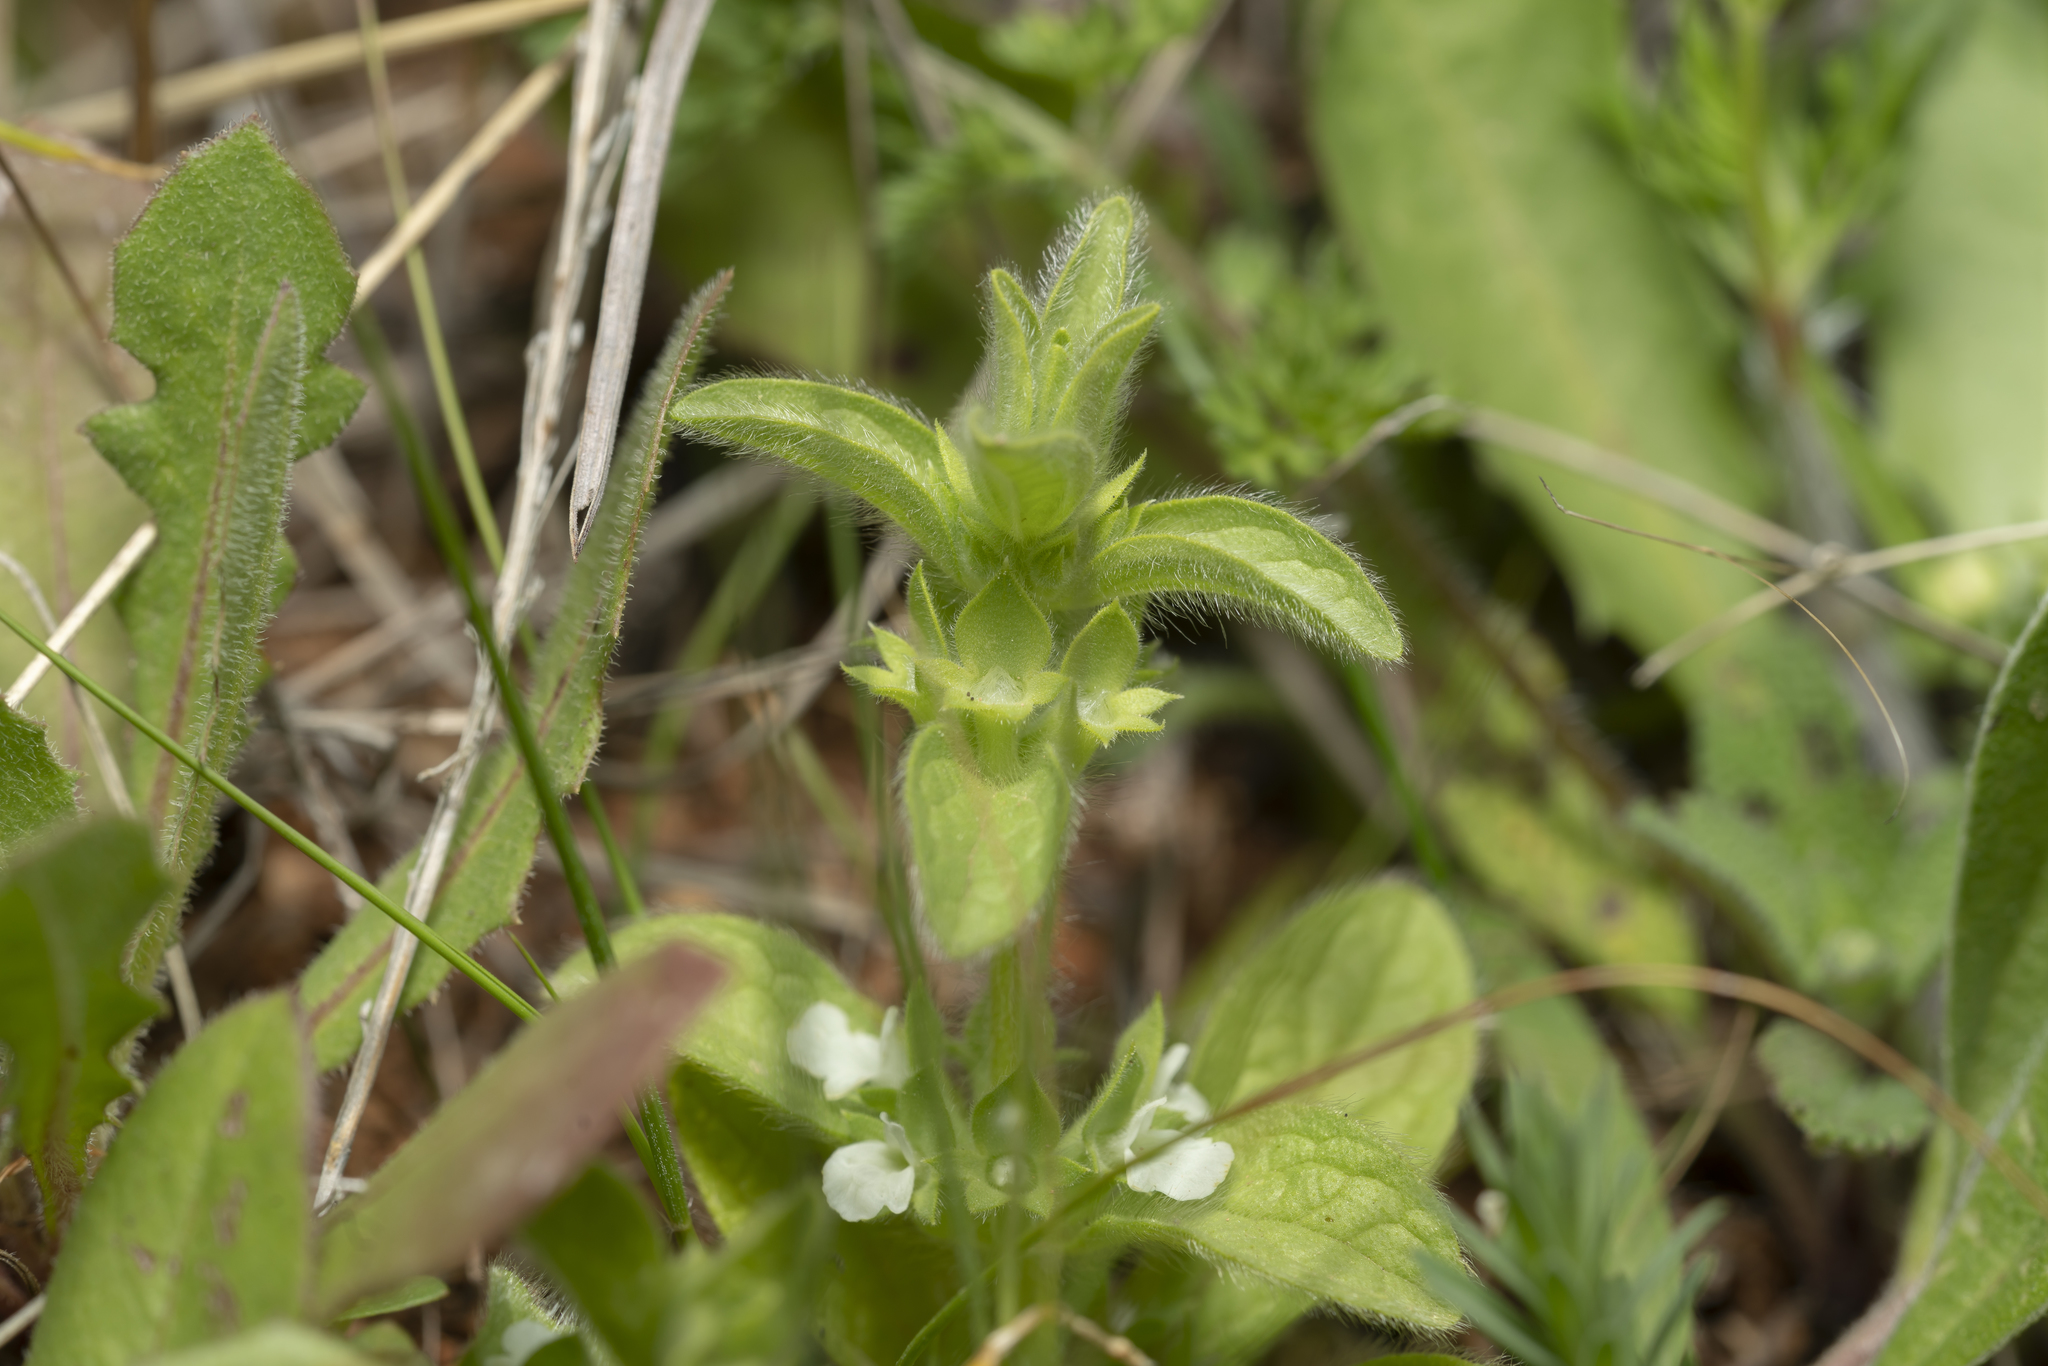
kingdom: Plantae
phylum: Tracheophyta
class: Magnoliopsida
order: Lamiales
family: Lamiaceae
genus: Sideritis
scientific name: Sideritis romana
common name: Simplebeak ironwort
